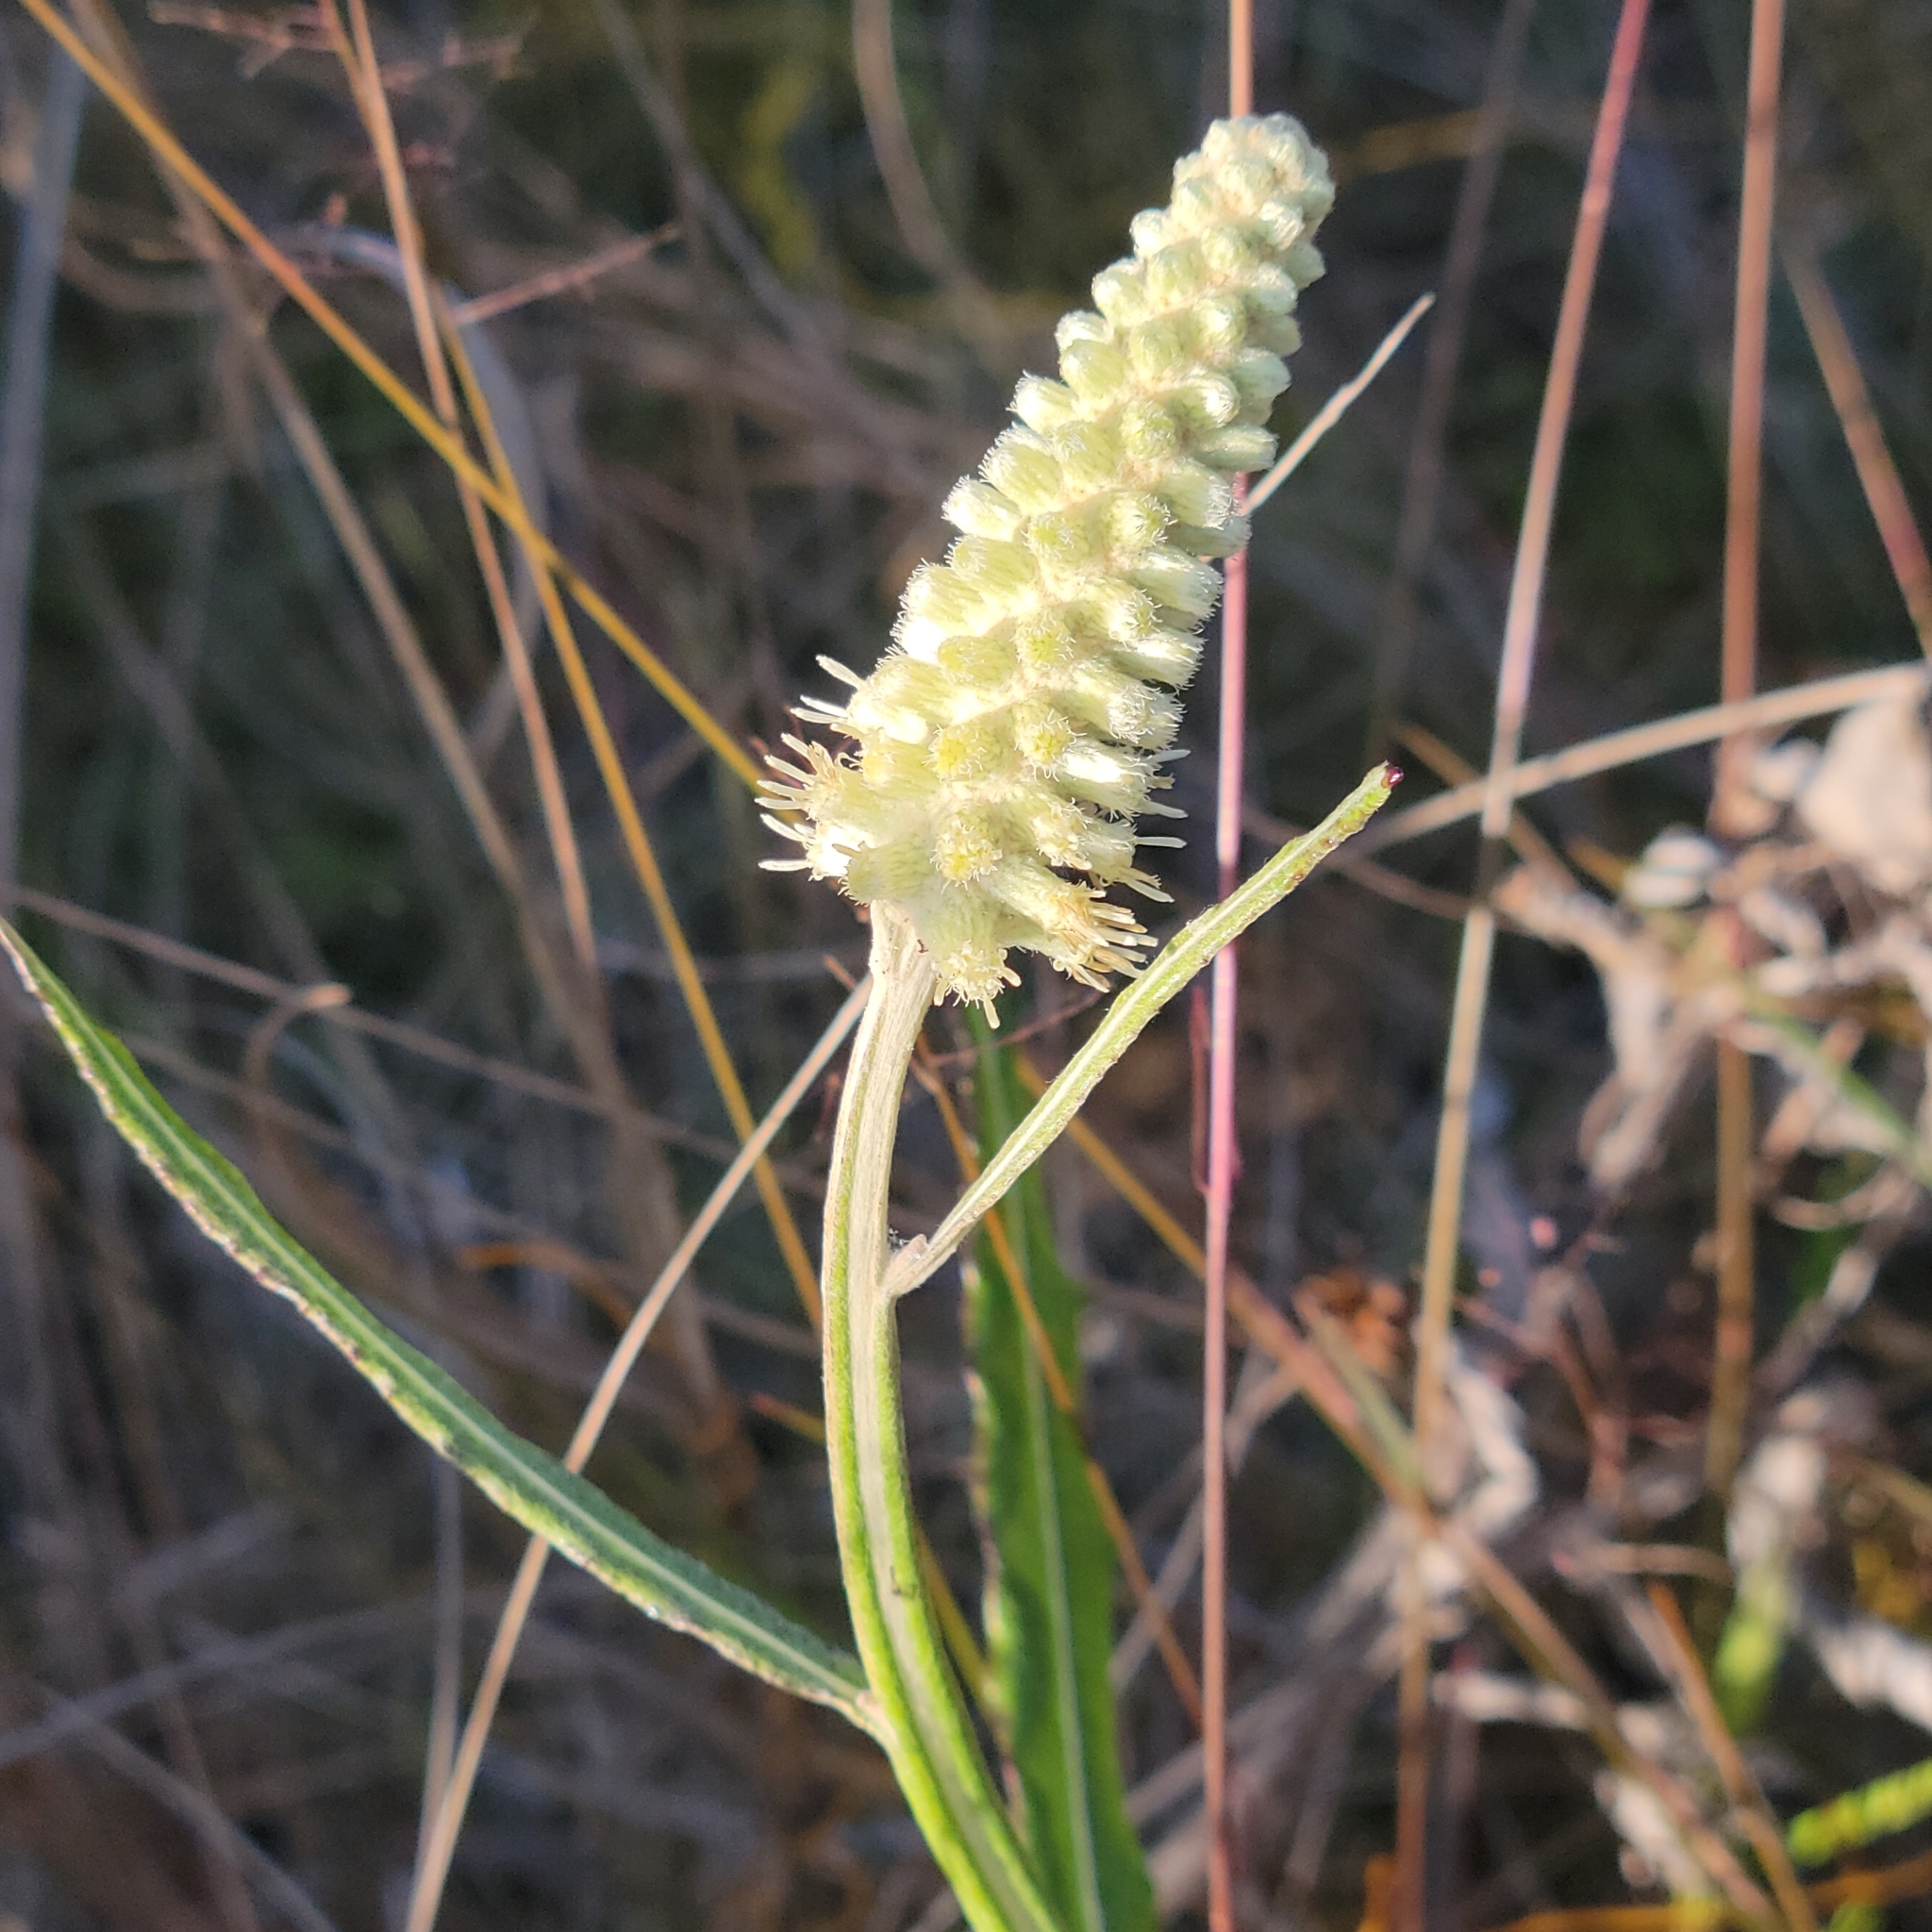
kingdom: Plantae
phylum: Tracheophyta
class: Magnoliopsida
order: Asterales
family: Asteraceae
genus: Pterocaulon
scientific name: Pterocaulon pycnostachyum
